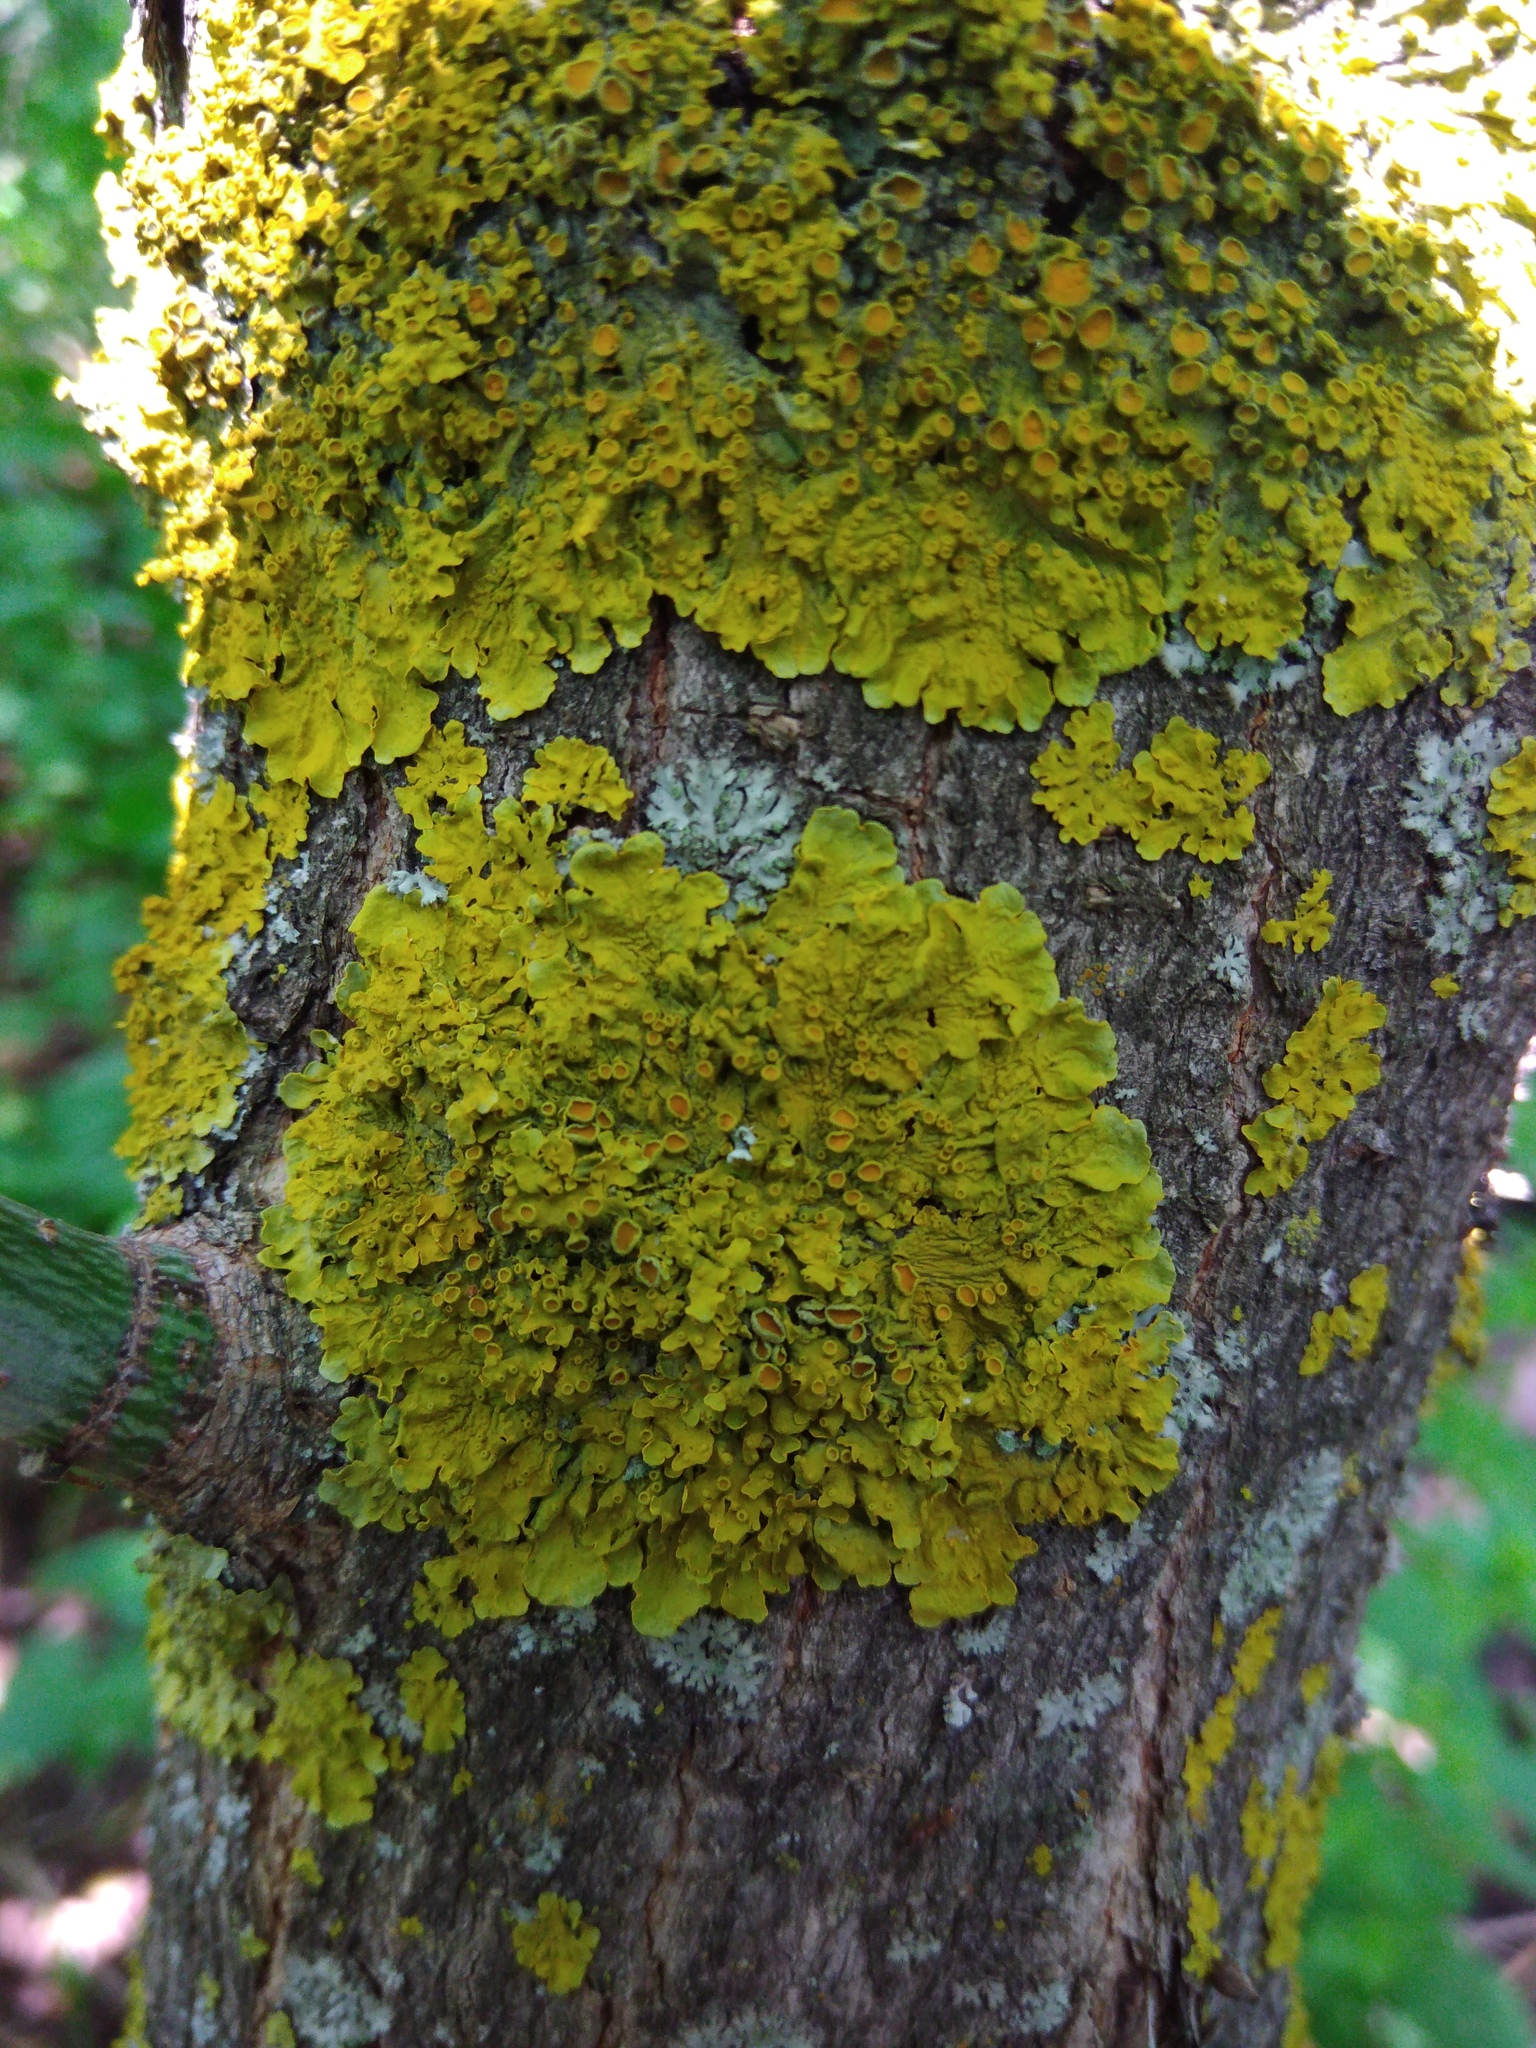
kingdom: Fungi
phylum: Ascomycota
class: Lecanoromycetes
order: Teloschistales
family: Teloschistaceae
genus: Xanthoria
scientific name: Xanthoria parietina
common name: Common orange lichen
